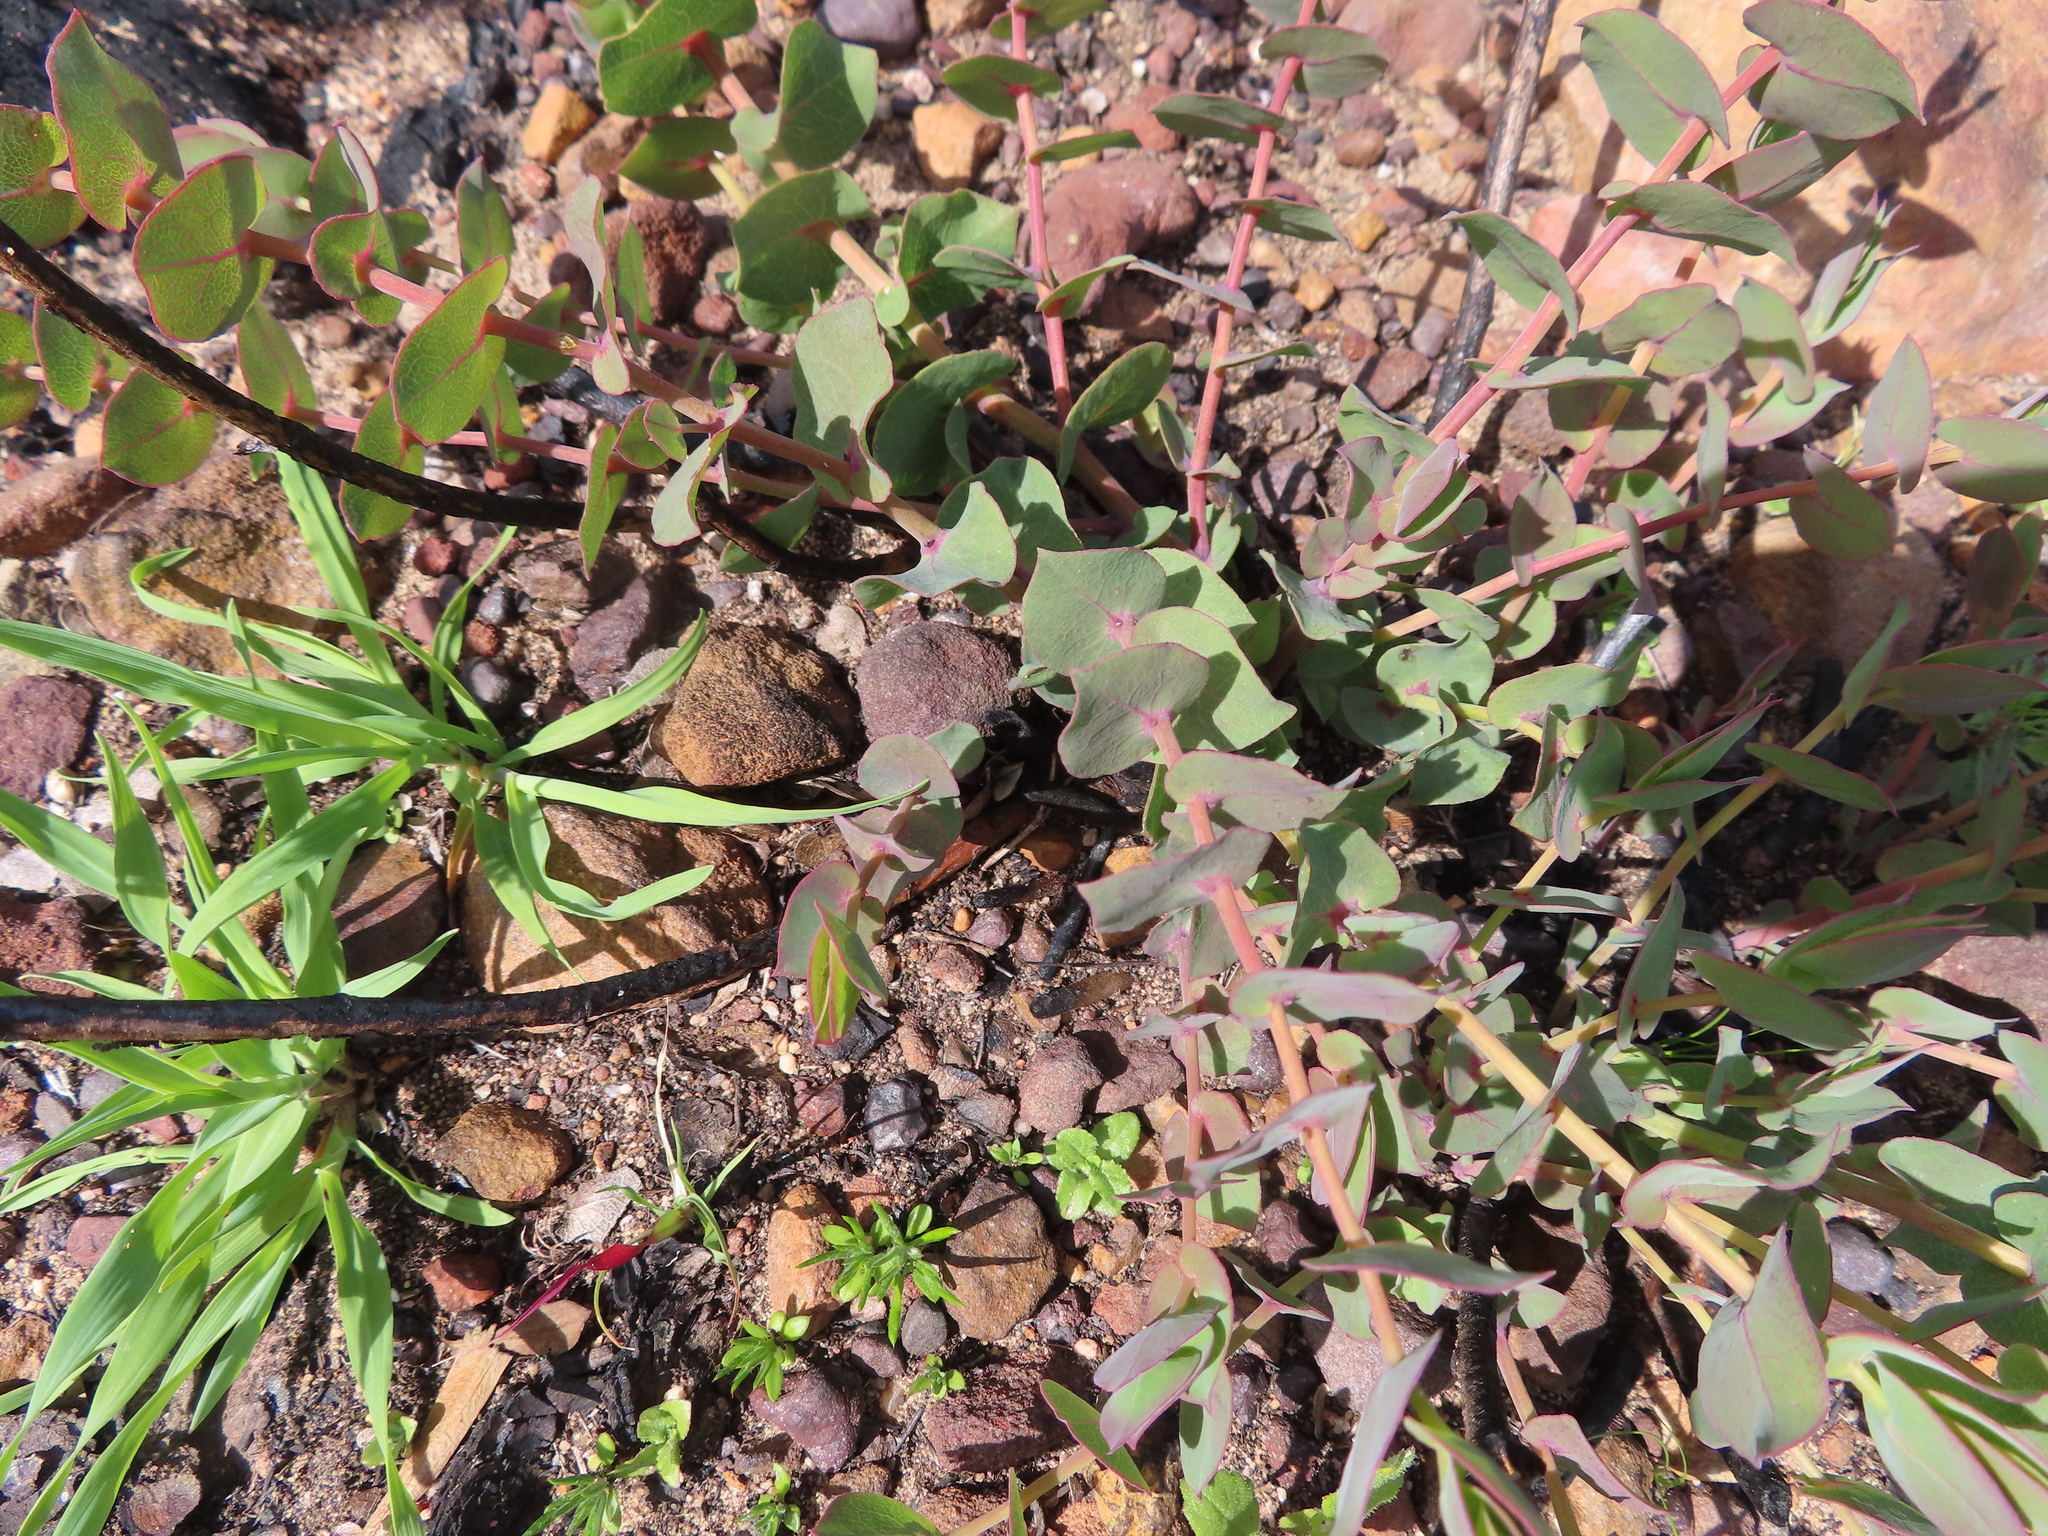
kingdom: Plantae
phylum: Tracheophyta
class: Magnoliopsida
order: Fabales
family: Fabaceae
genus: Rafnia
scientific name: Rafnia acuminata
